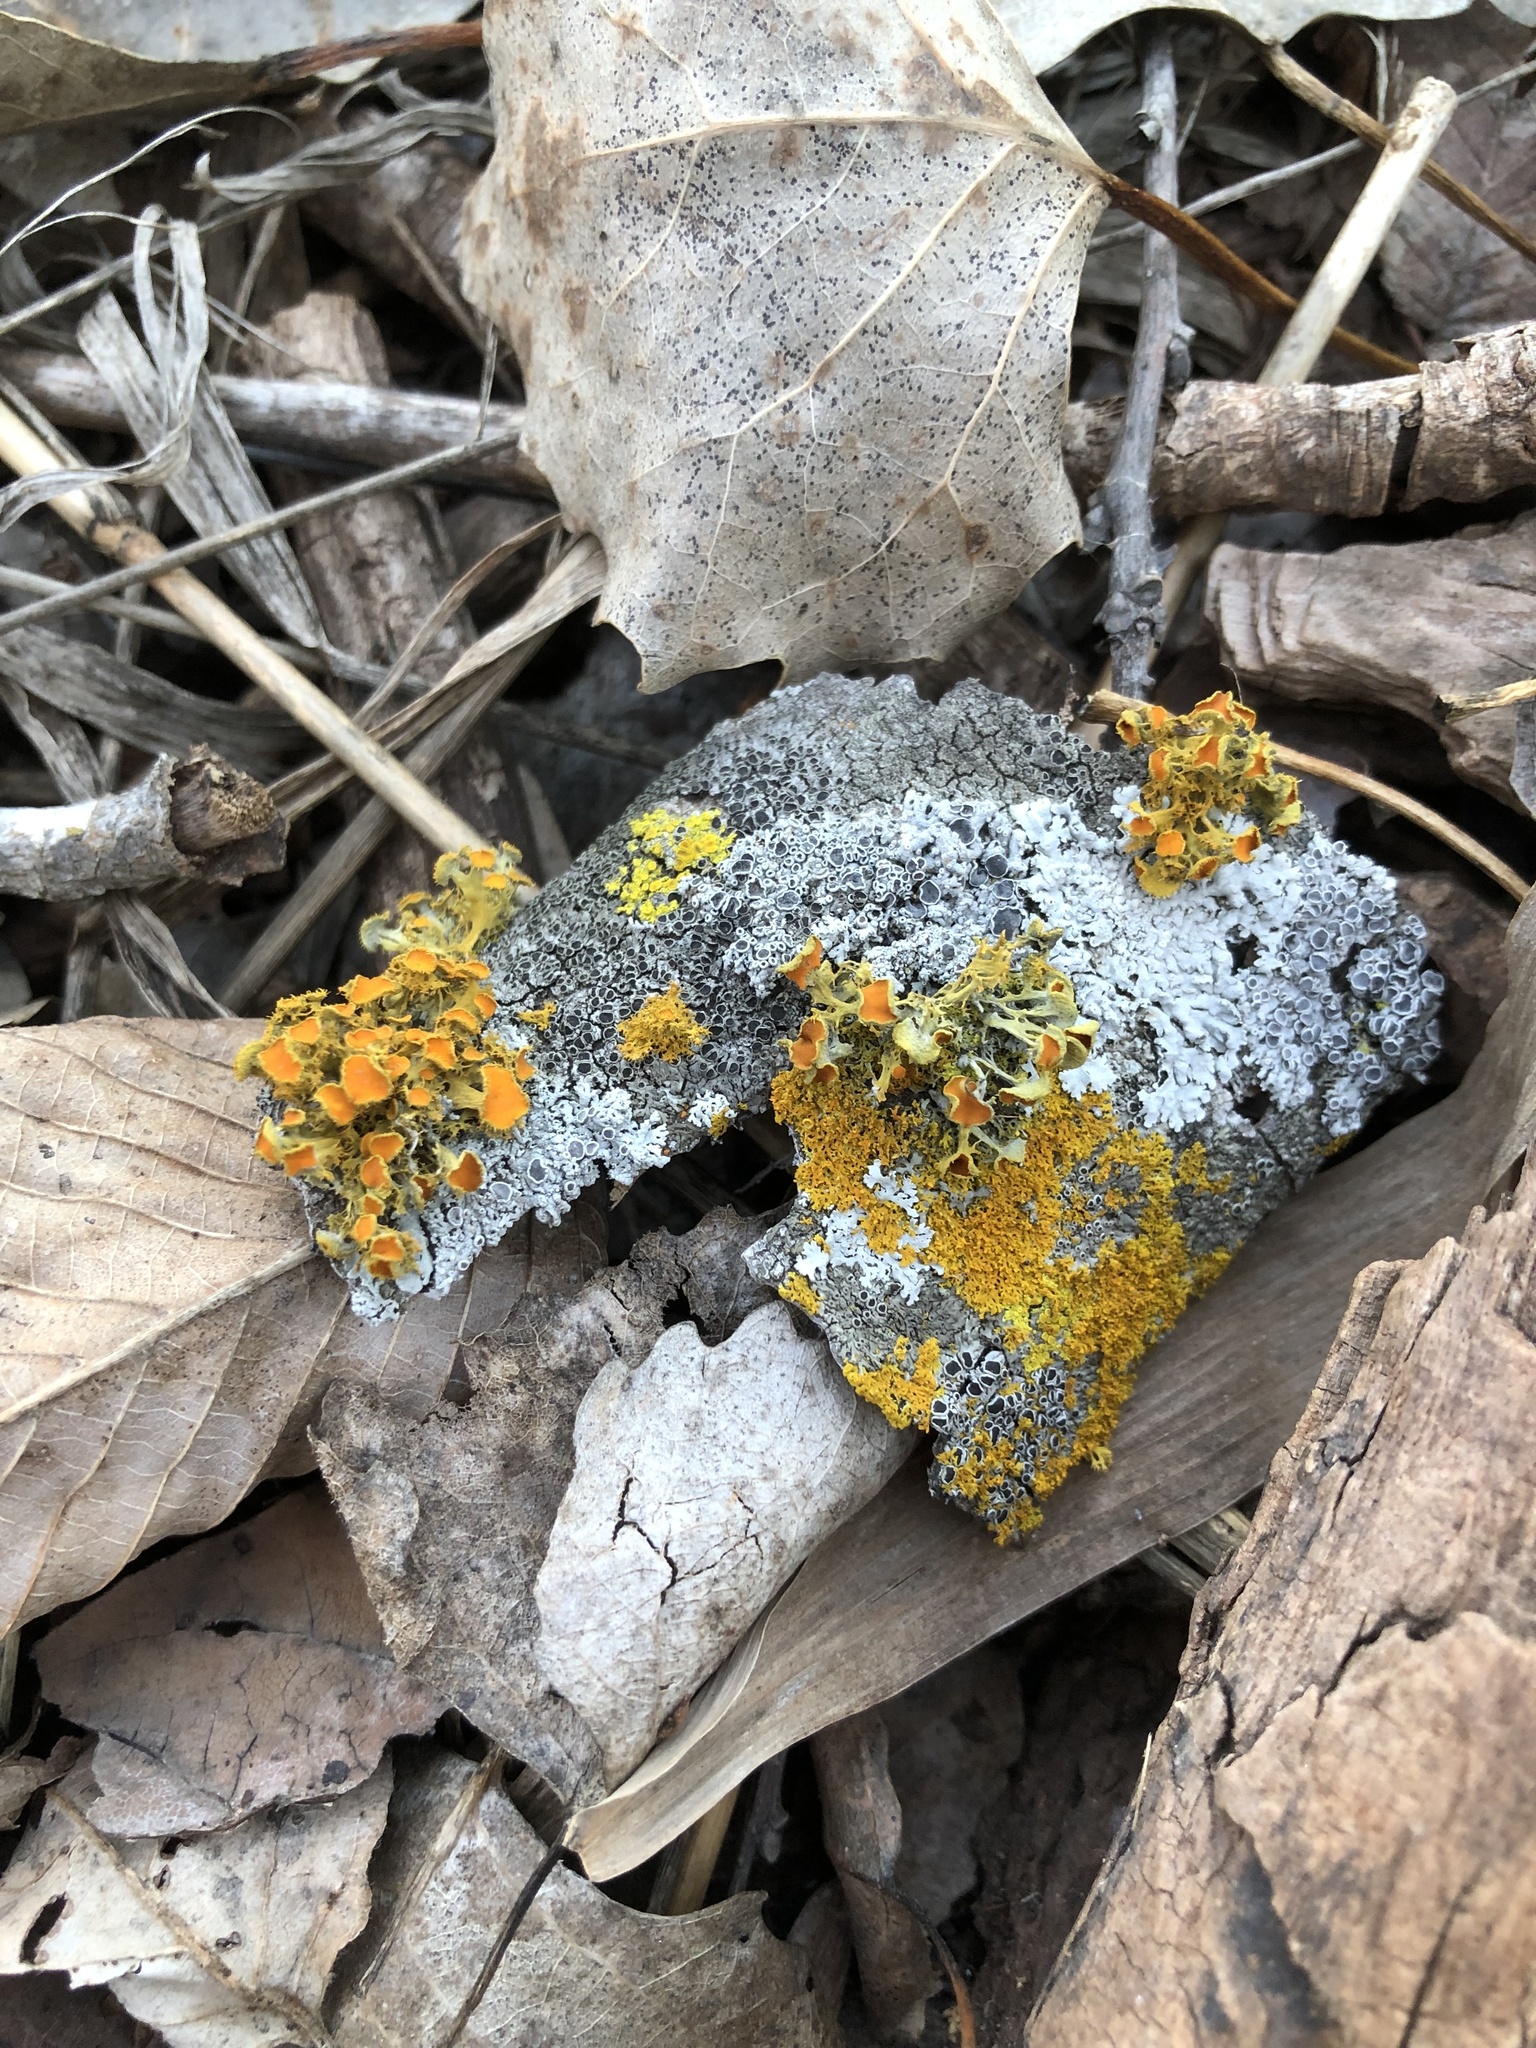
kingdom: Fungi
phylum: Ascomycota
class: Lecanoromycetes
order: Teloschistales
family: Teloschistaceae
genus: Niorma
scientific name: Niorma chrysophthalma
